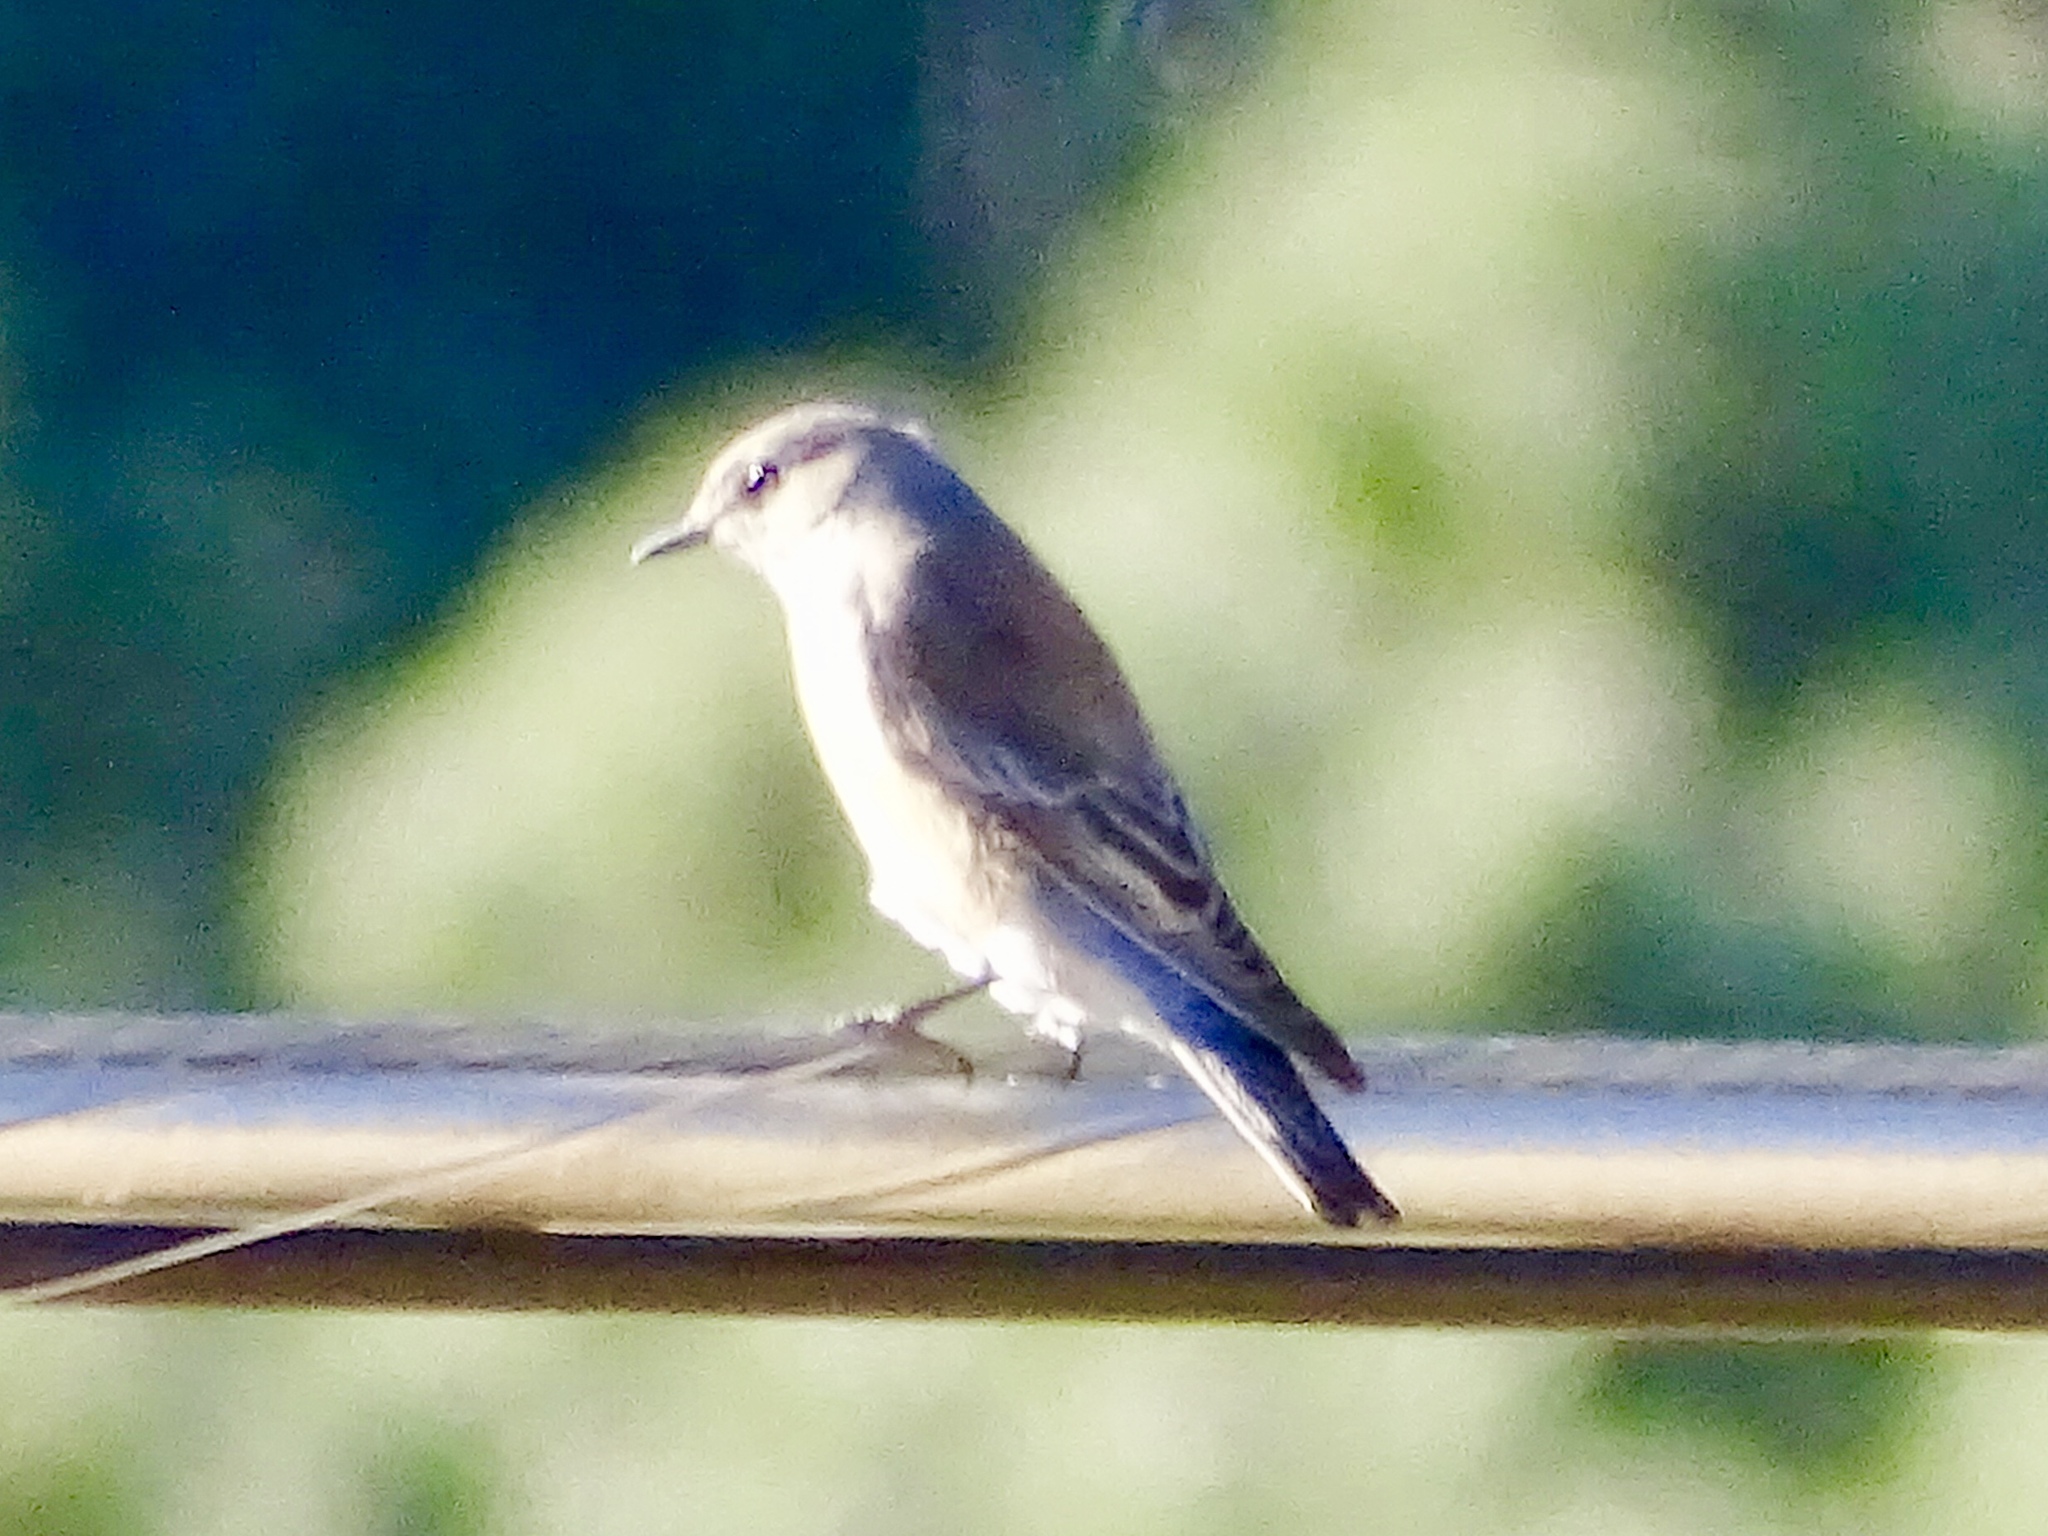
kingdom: Animalia
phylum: Chordata
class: Aves
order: Passeriformes
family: Turdidae
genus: Sialia
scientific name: Sialia mexicana
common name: Western bluebird
